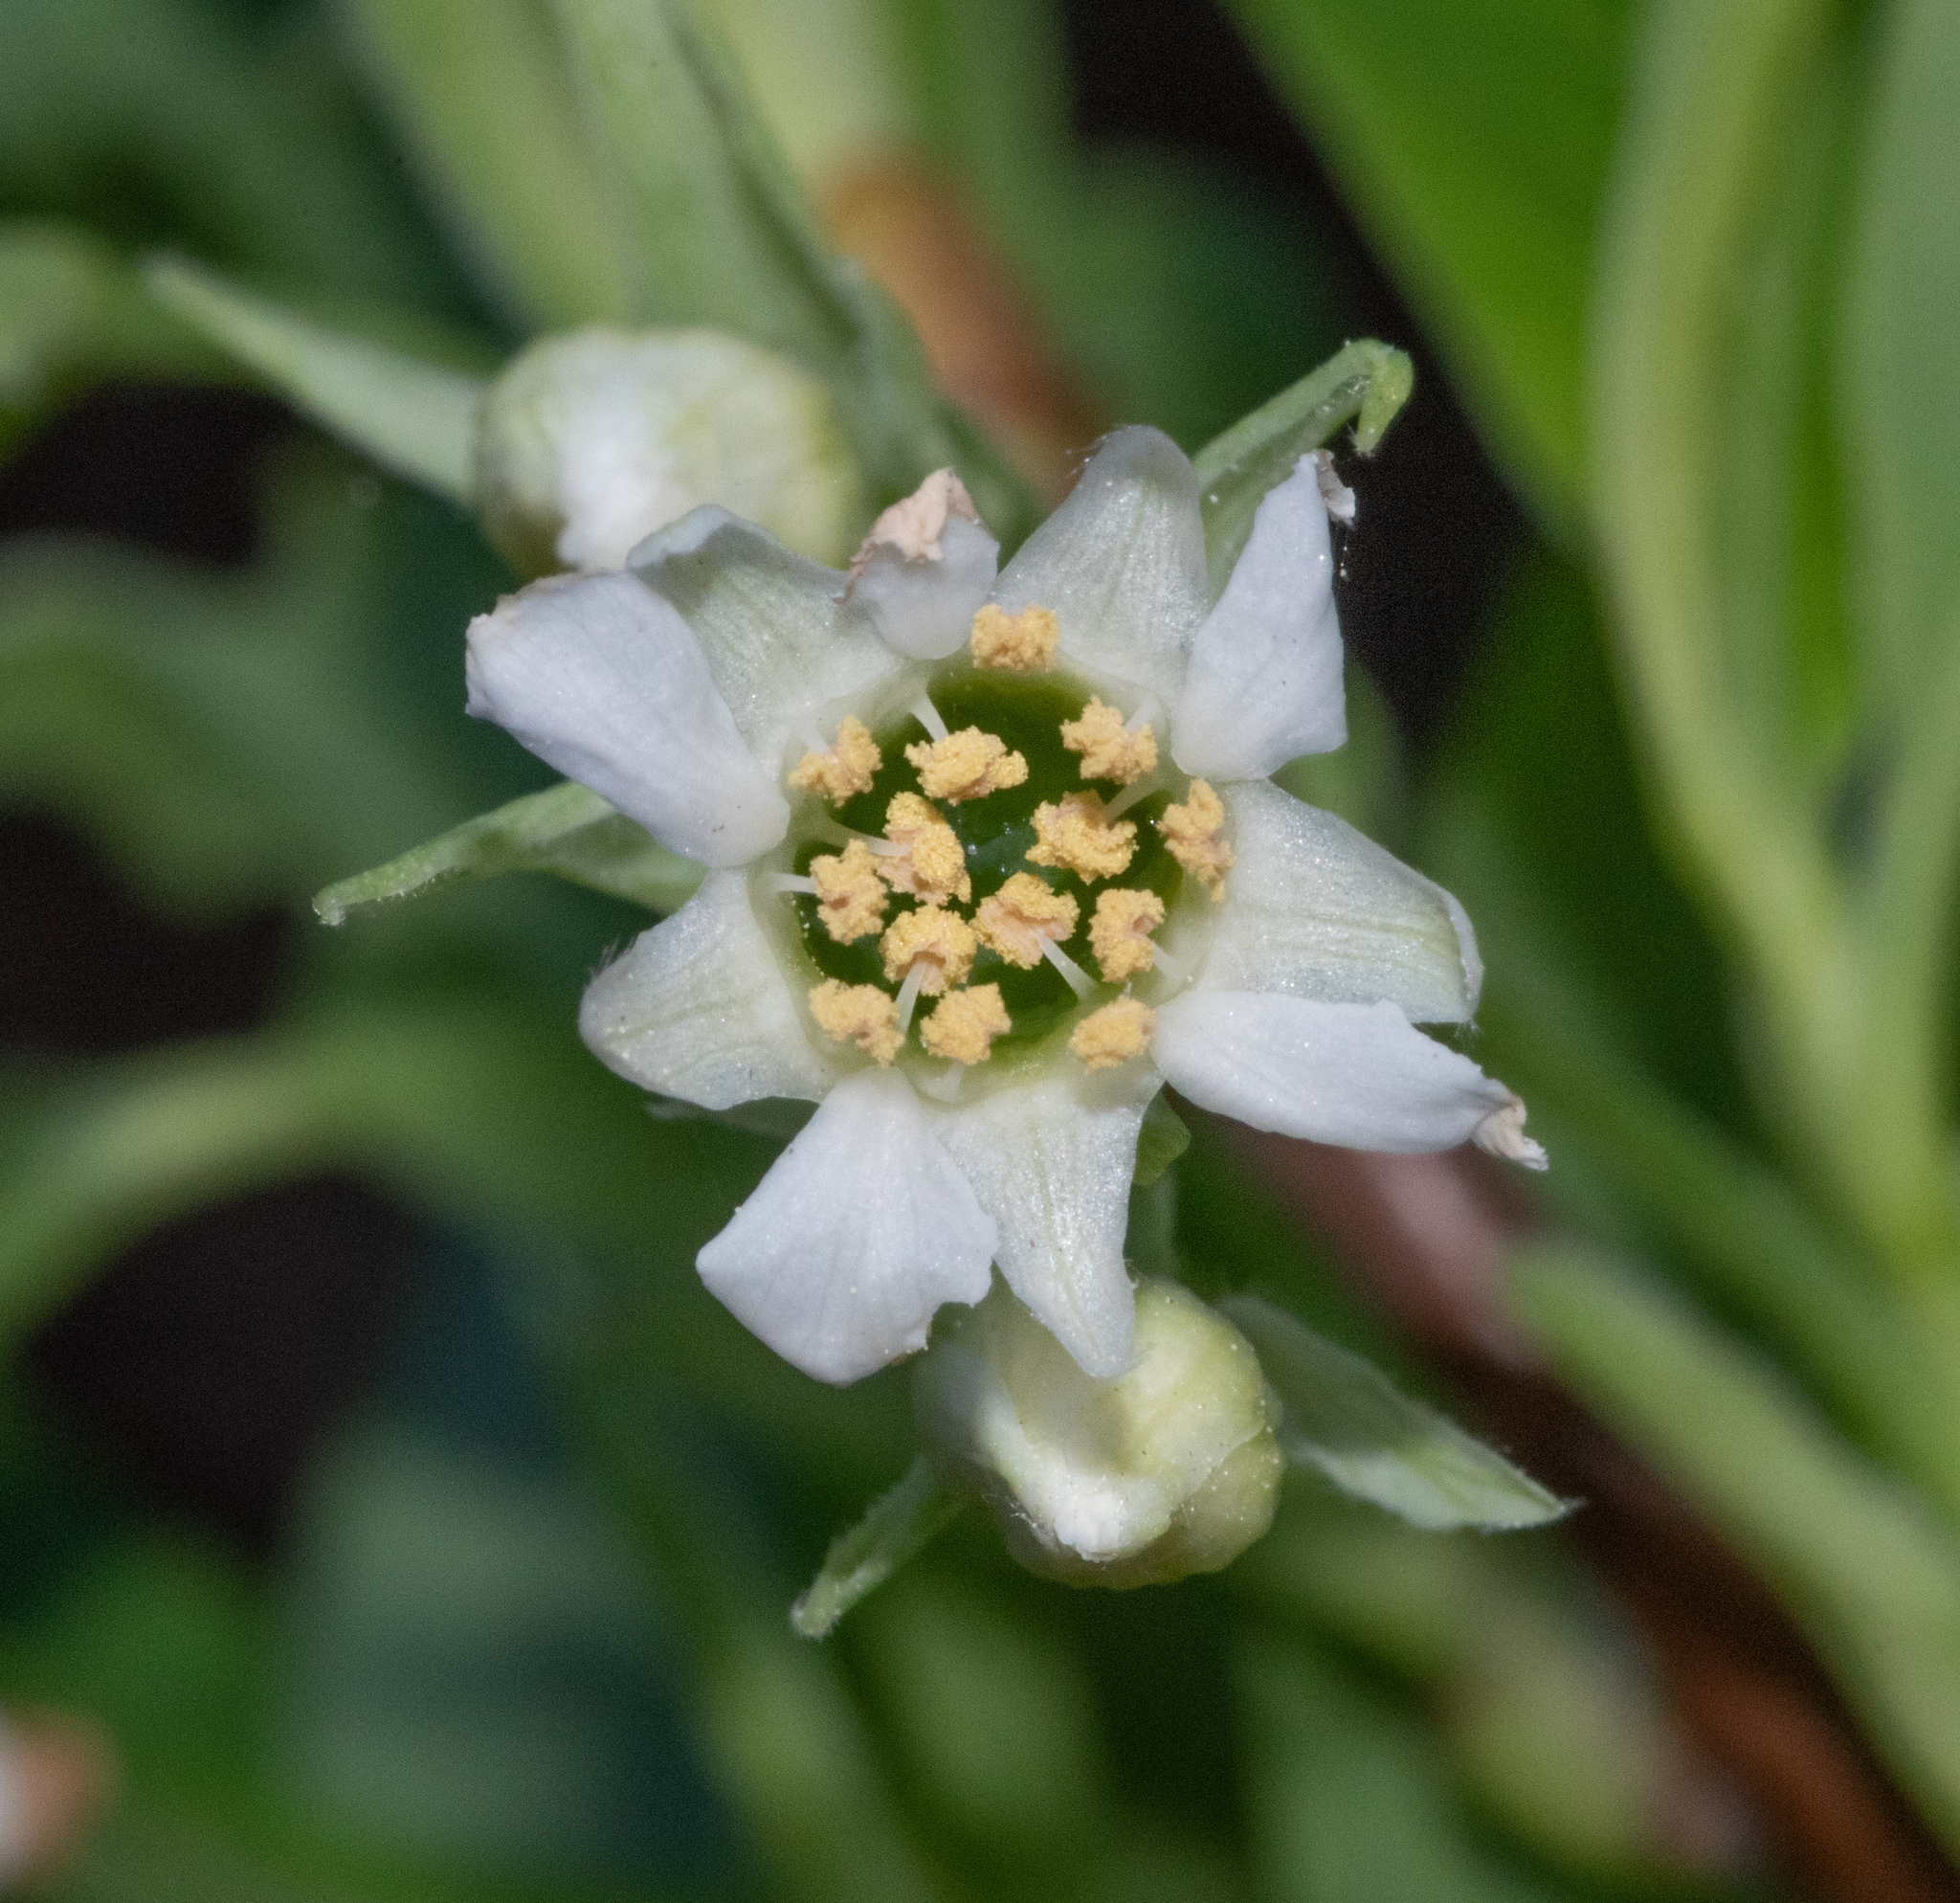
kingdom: Plantae
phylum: Tracheophyta
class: Magnoliopsida
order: Rosales
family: Rosaceae
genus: Oemleria
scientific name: Oemleria cerasiformis
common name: Osoberry
